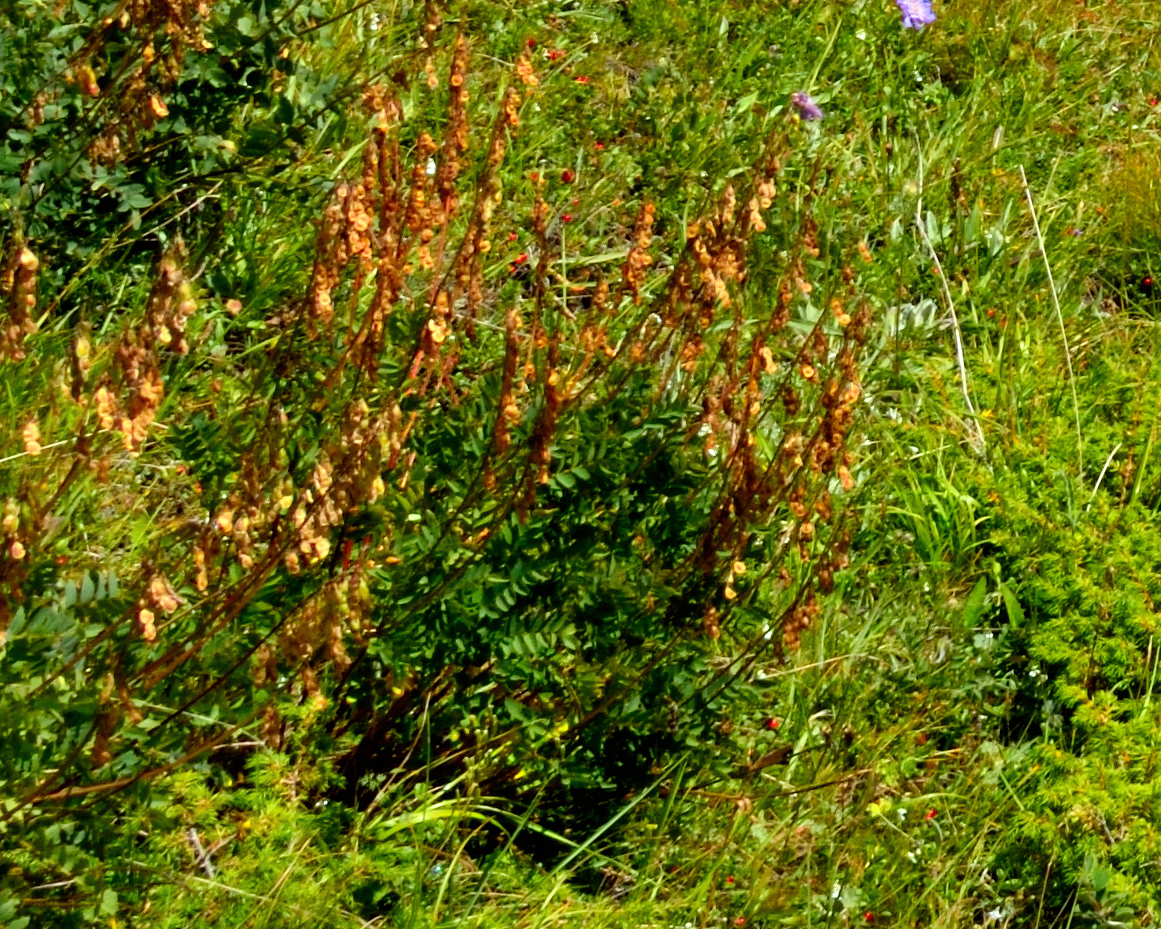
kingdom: Plantae
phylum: Tracheophyta
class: Magnoliopsida
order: Fabales
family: Fabaceae
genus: Hedysarum
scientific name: Hedysarum caucasicum
